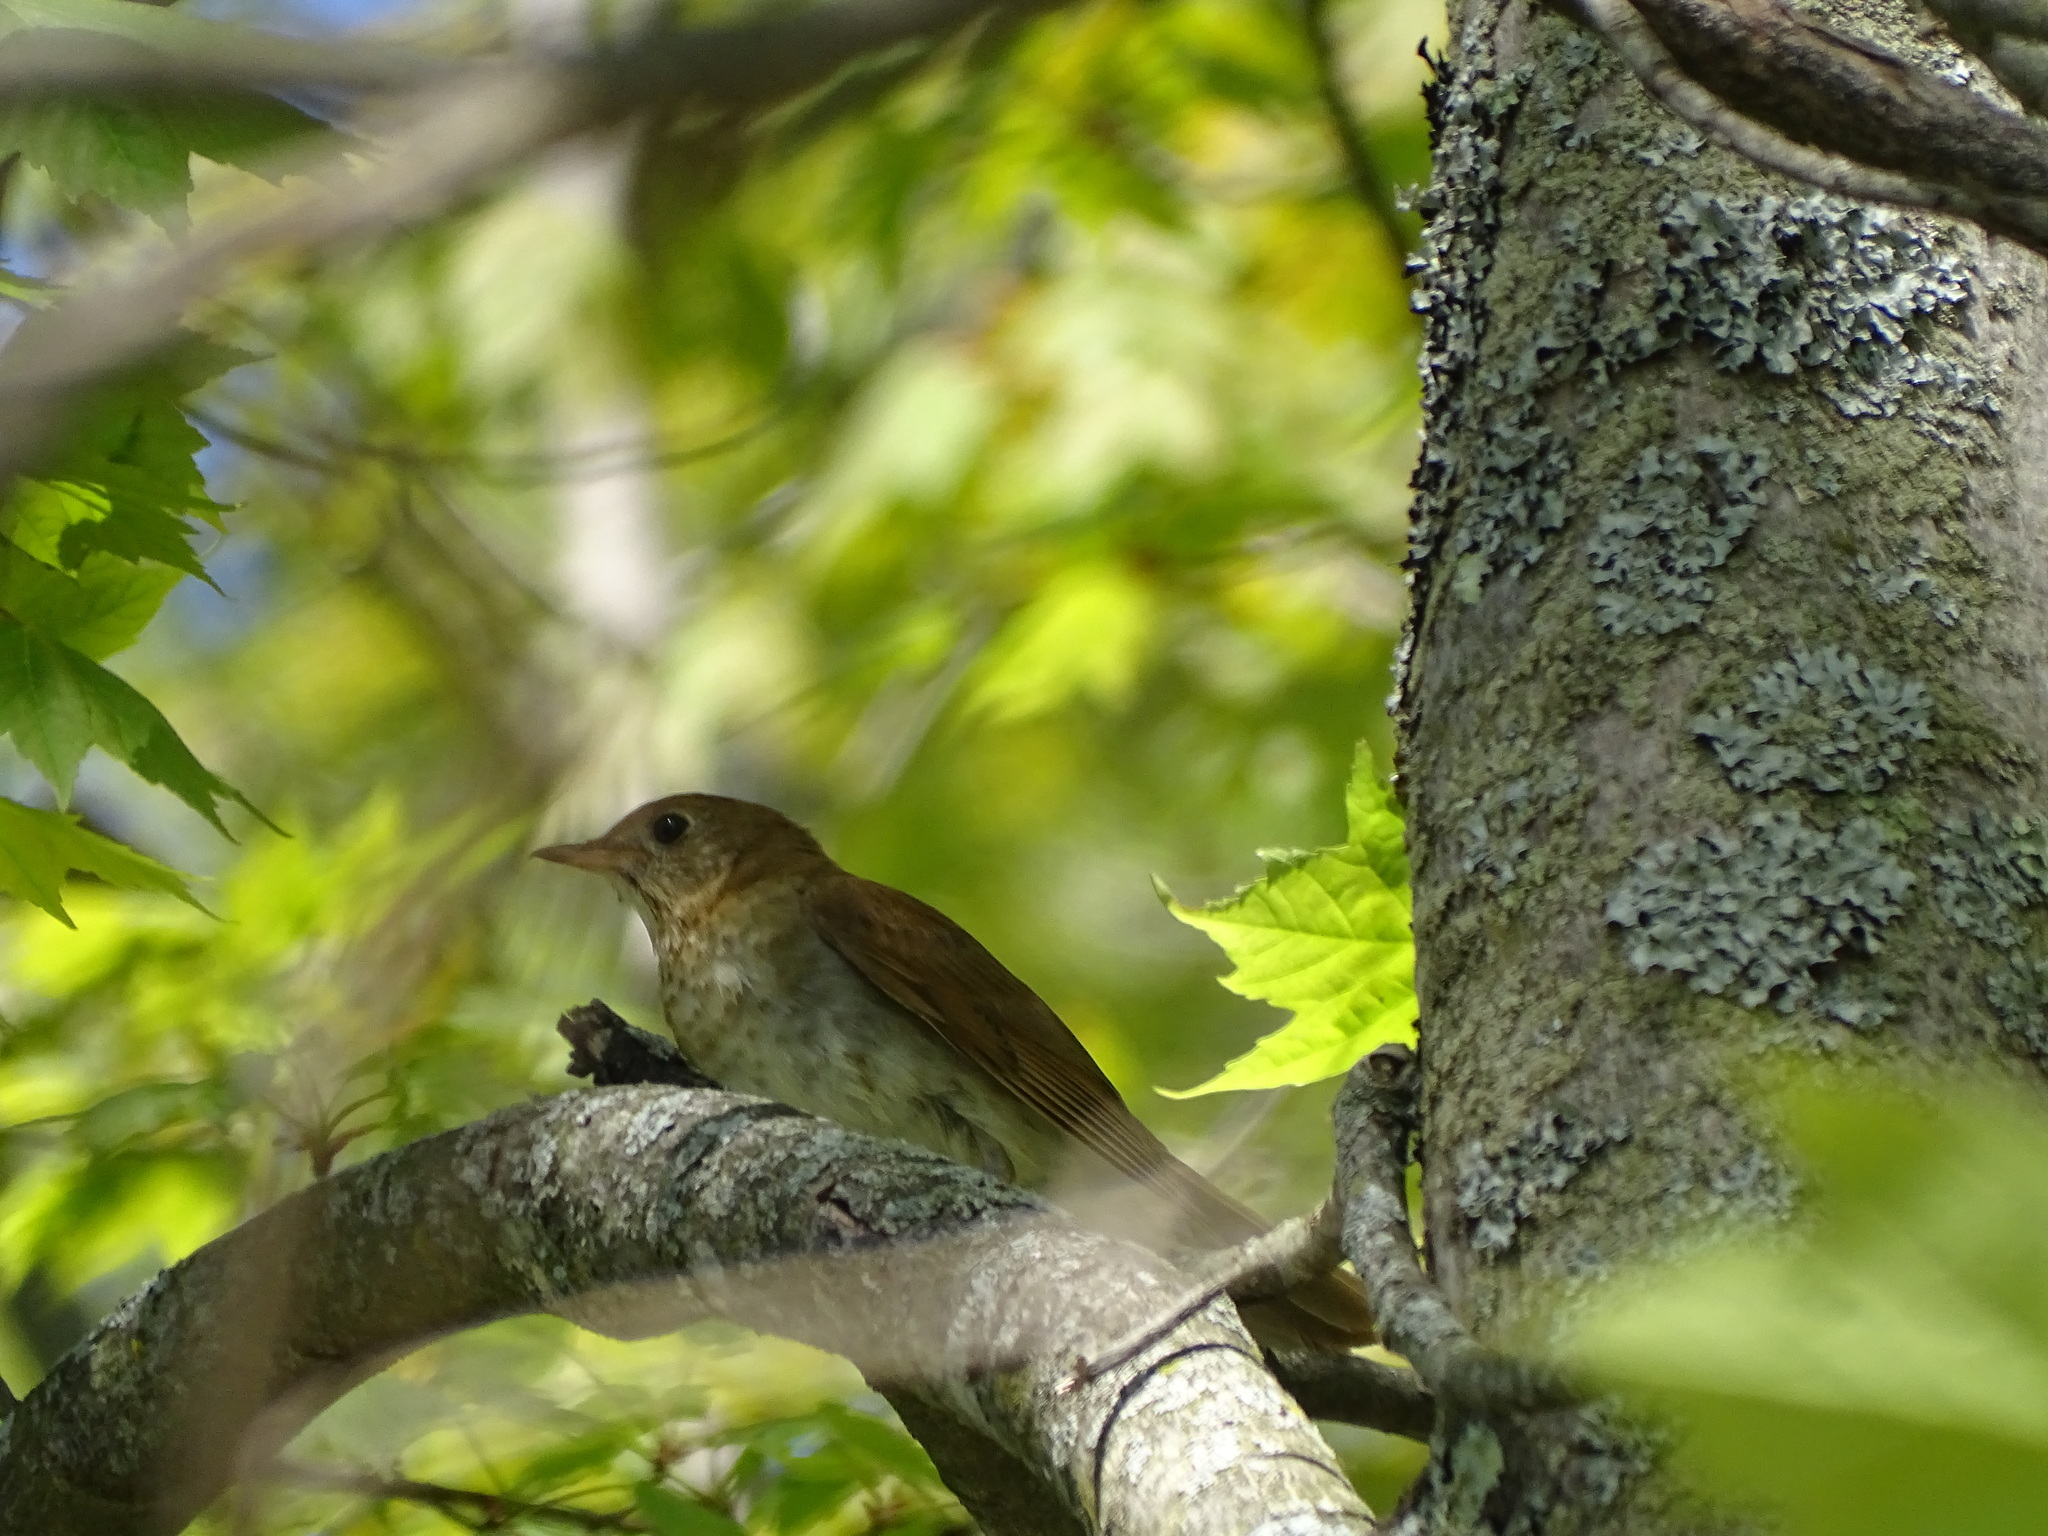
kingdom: Animalia
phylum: Chordata
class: Aves
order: Passeriformes
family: Turdidae
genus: Catharus
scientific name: Catharus fuscescens
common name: Veery
